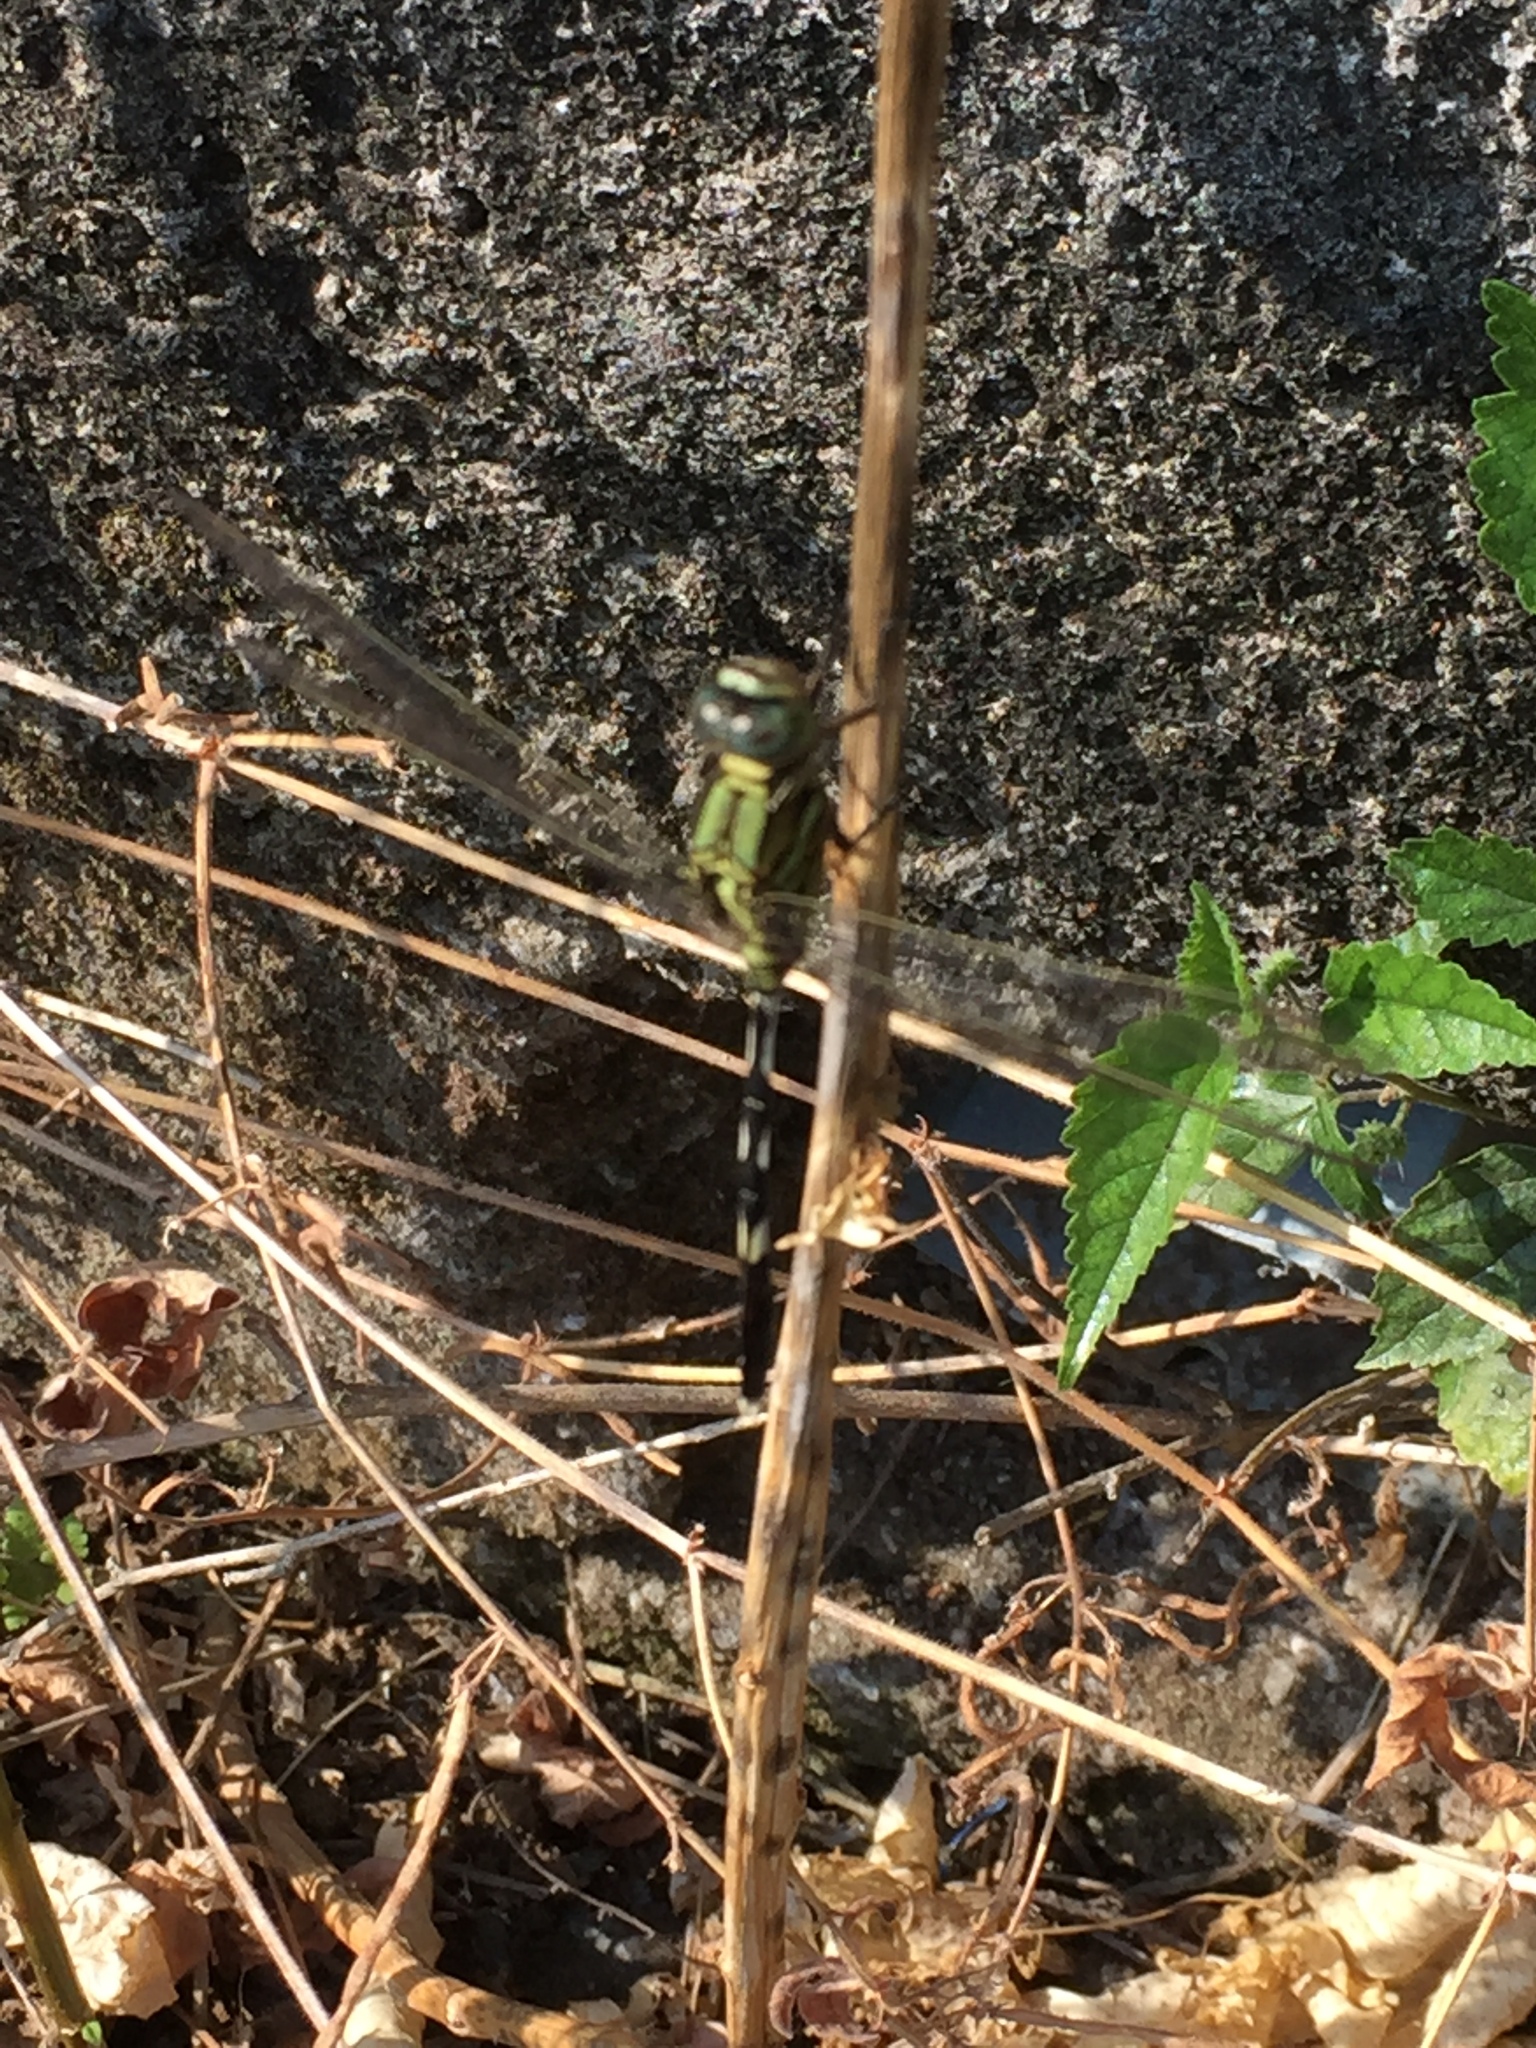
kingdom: Animalia
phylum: Arthropoda
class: Insecta
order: Odonata
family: Libellulidae
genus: Orthetrum
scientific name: Orthetrum sabina
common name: Slender skimmer
